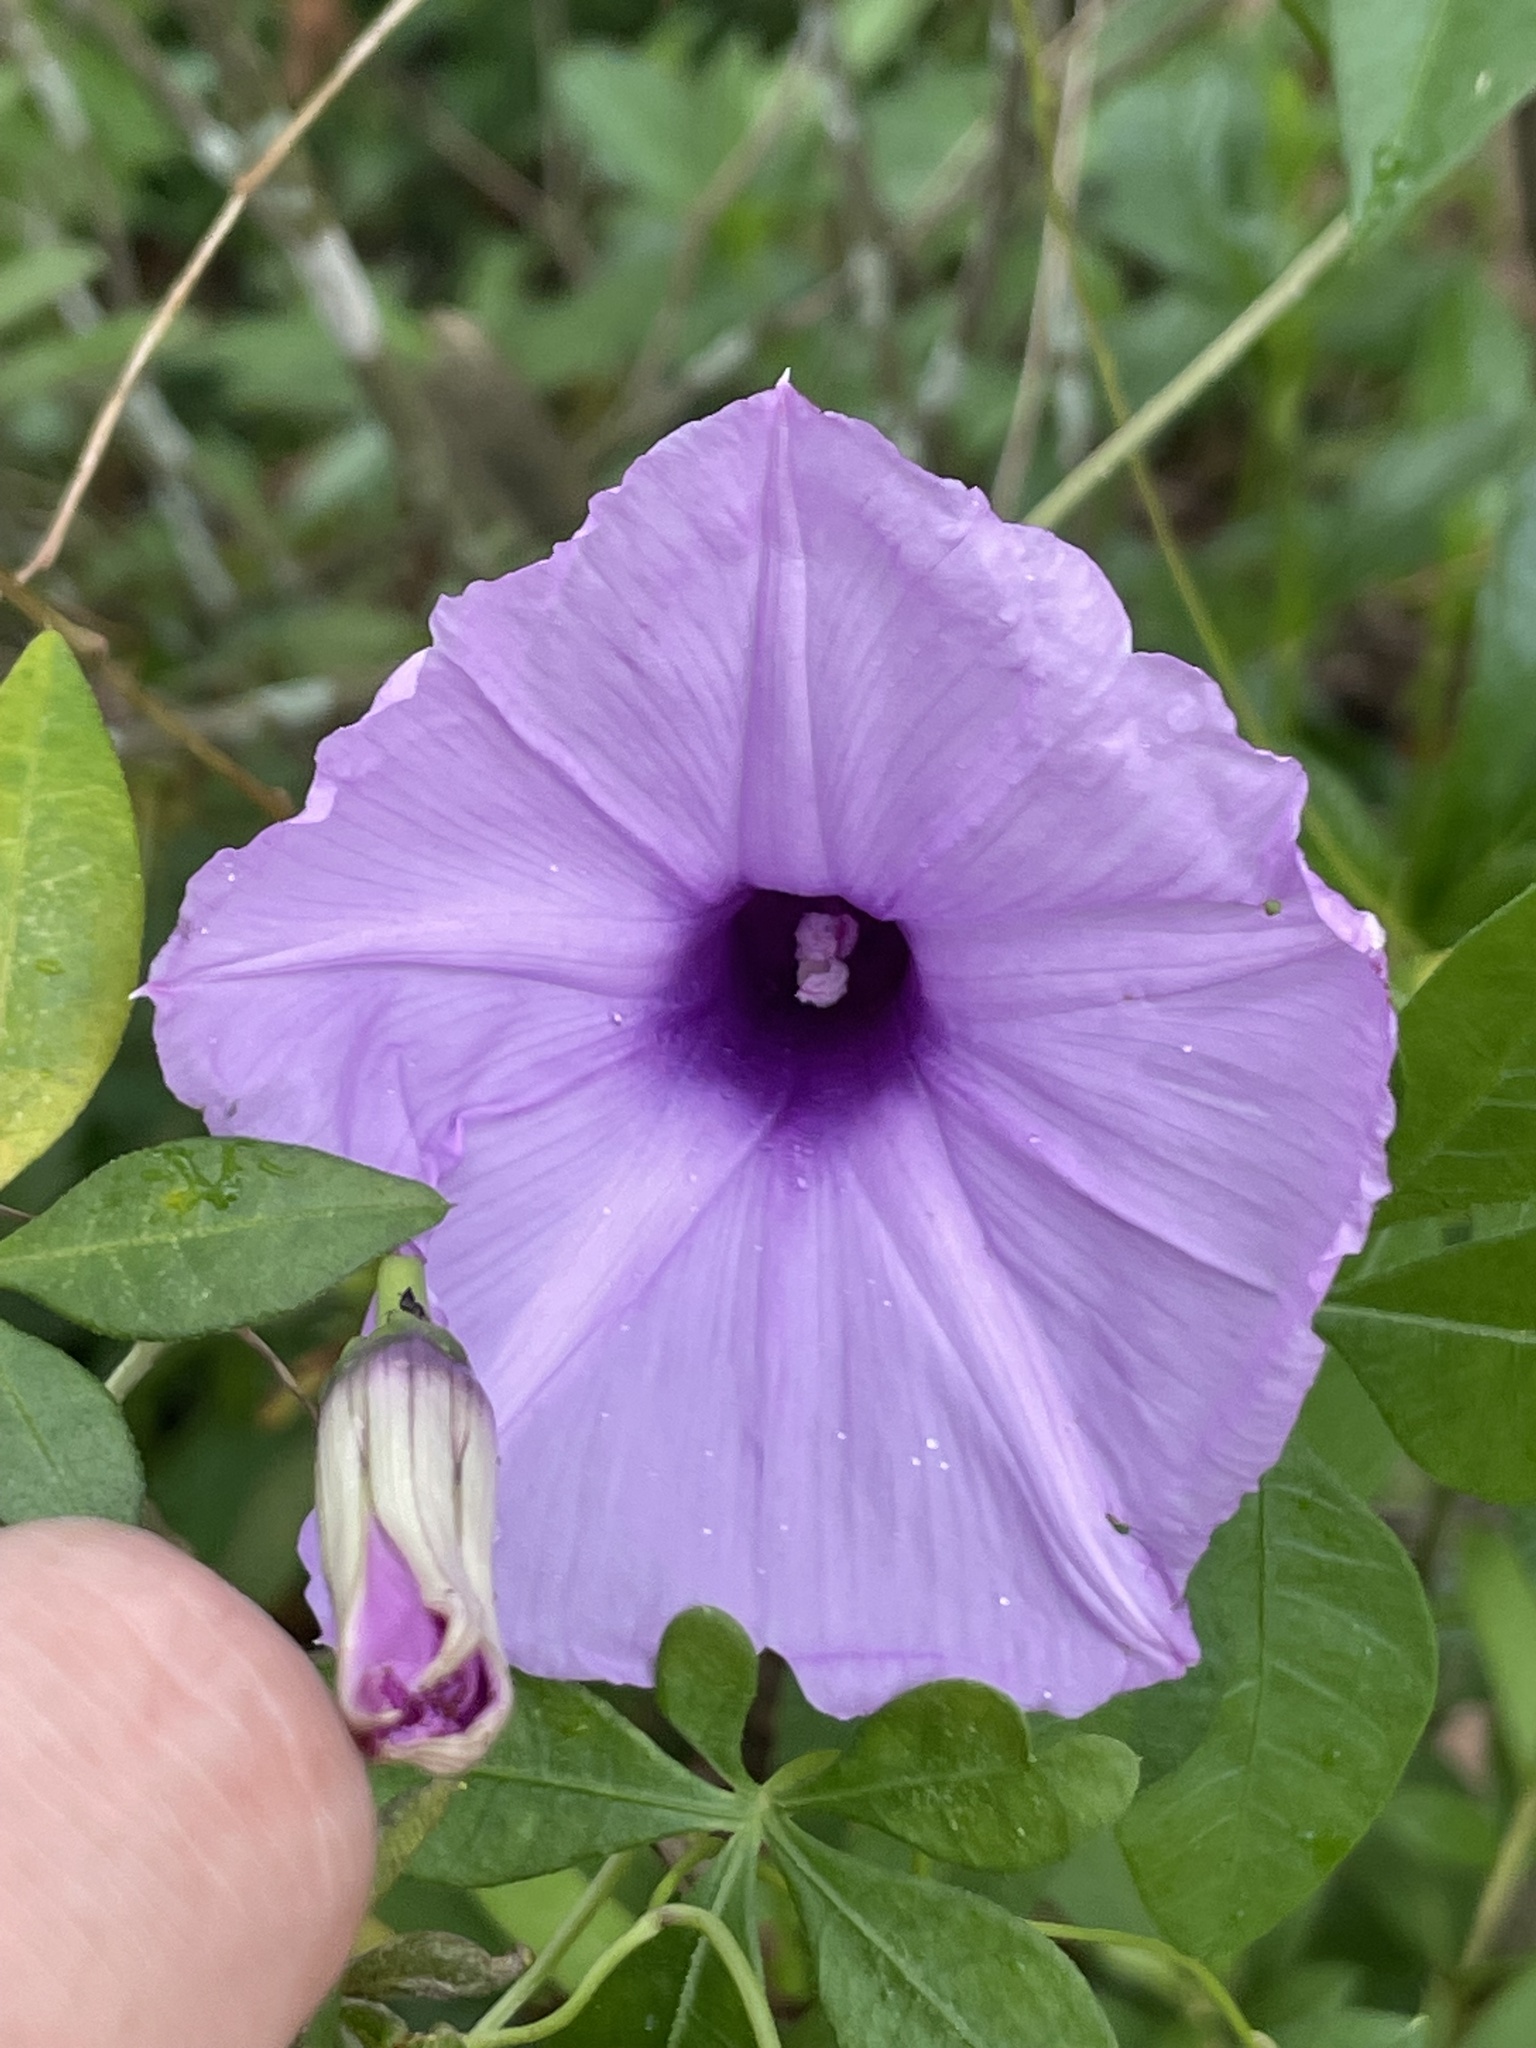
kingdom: Plantae
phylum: Tracheophyta
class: Magnoliopsida
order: Solanales
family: Convolvulaceae
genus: Ipomoea
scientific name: Ipomoea cairica
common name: Mile a minute vine
